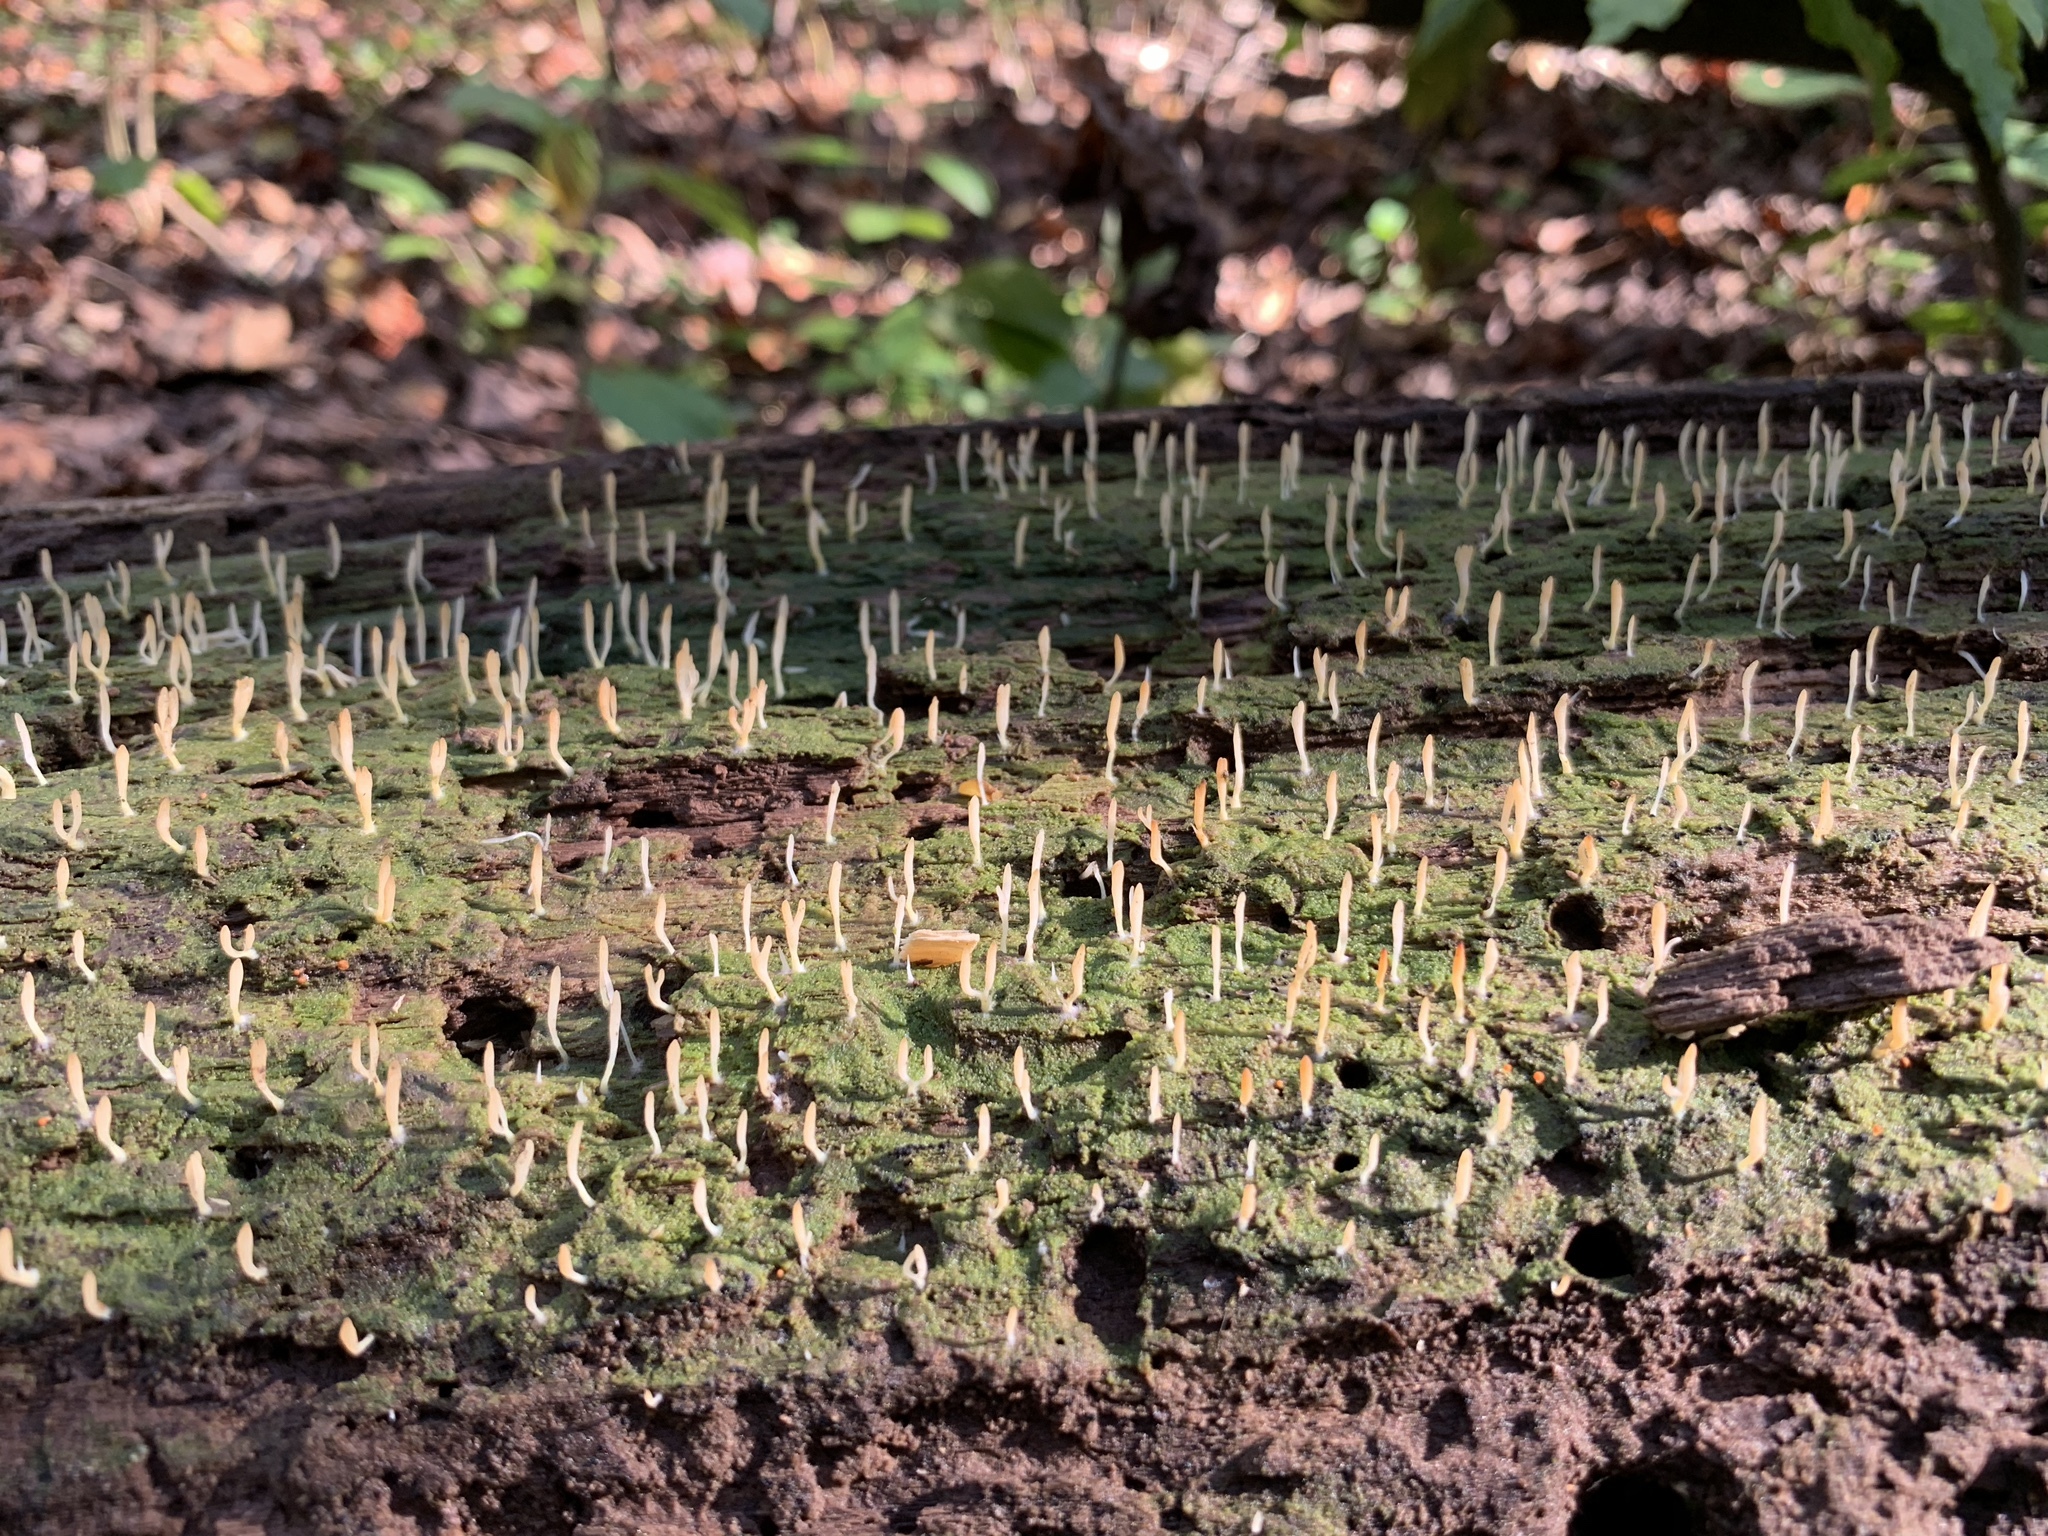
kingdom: Fungi
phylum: Basidiomycota
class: Agaricomycetes
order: Cantharellales
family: Hydnaceae
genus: Multiclavula
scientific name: Multiclavula mucida
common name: White green-algae coral
